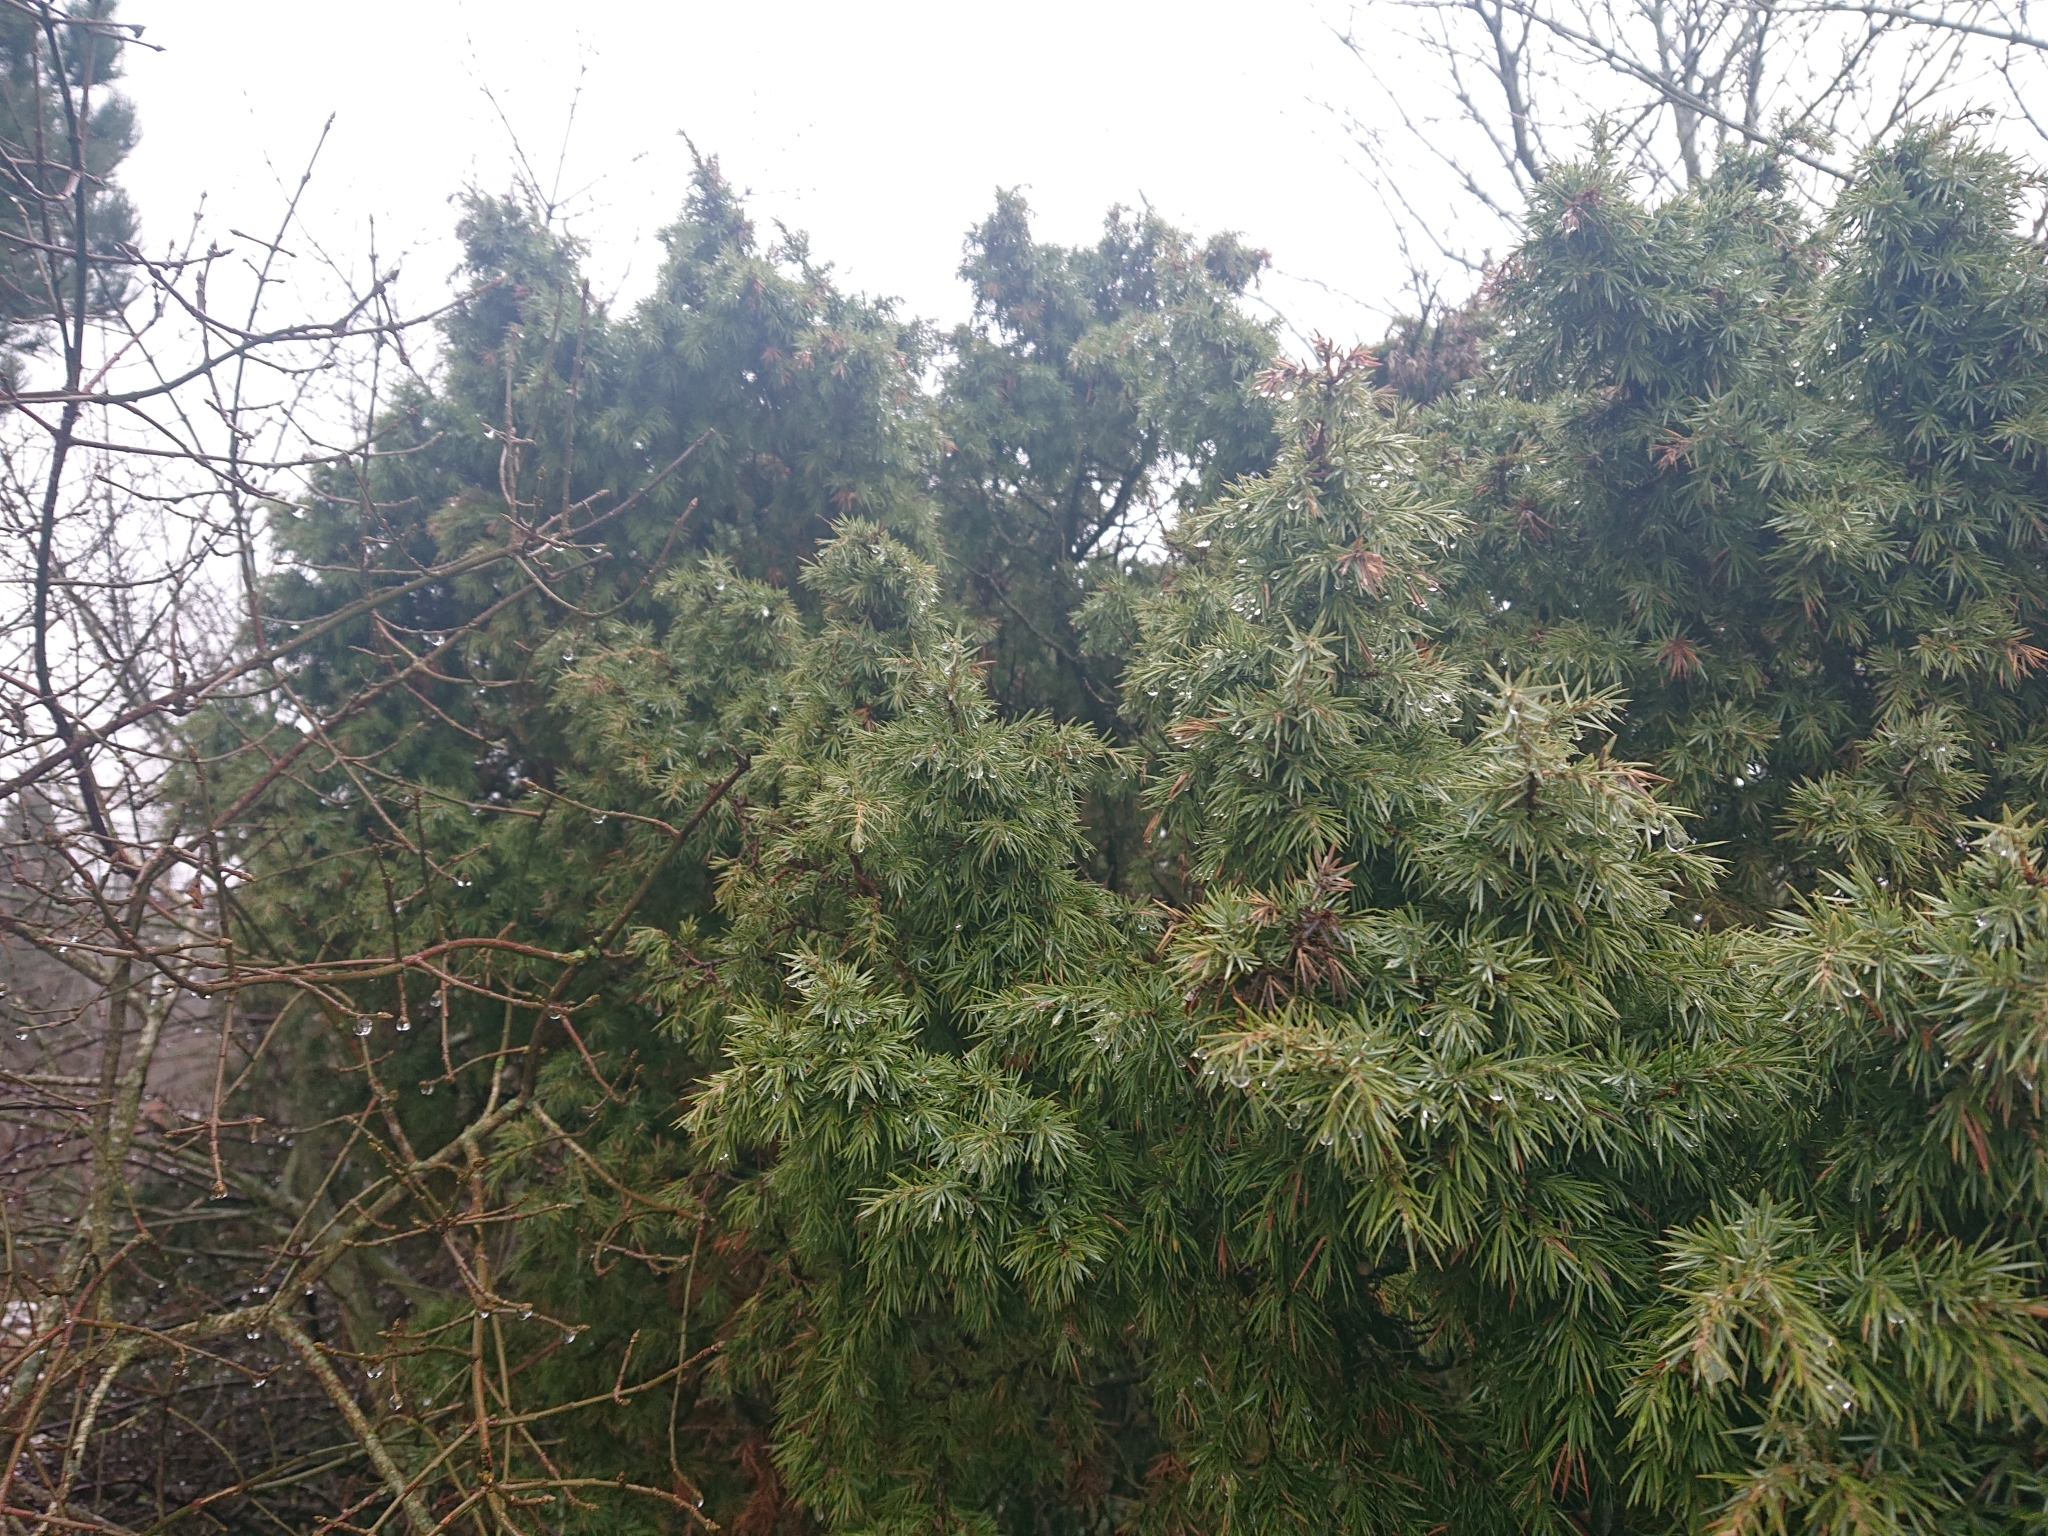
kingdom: Plantae
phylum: Tracheophyta
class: Pinopsida
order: Pinales
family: Cupressaceae
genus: Juniperus
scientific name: Juniperus communis
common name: Common juniper
